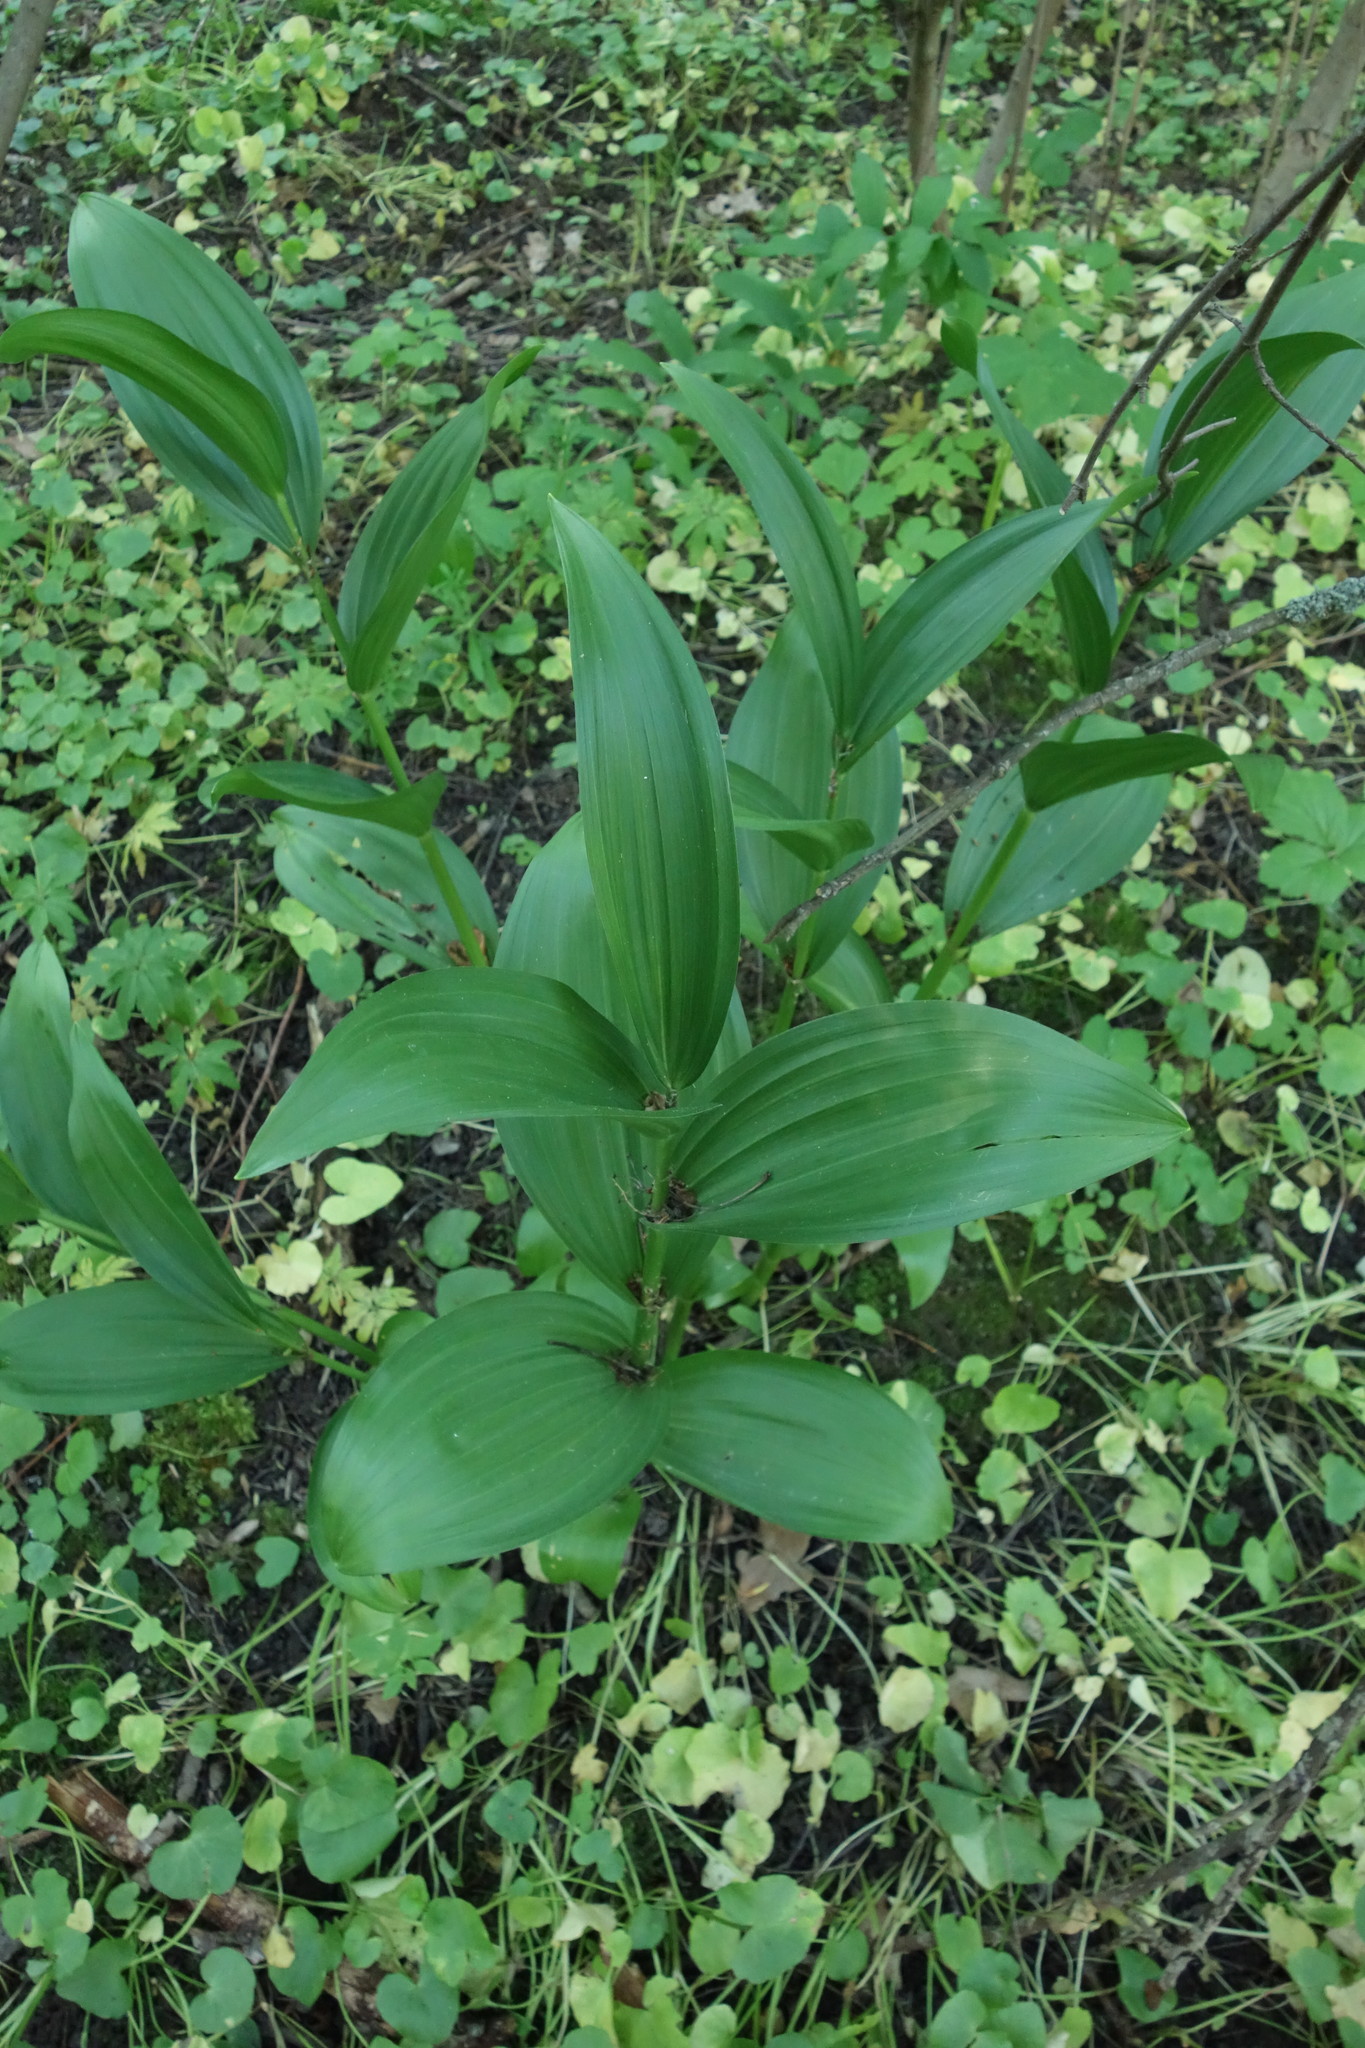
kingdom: Plantae
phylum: Tracheophyta
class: Liliopsida
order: Liliales
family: Melanthiaceae
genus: Veratrum
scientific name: Veratrum lobelianum
